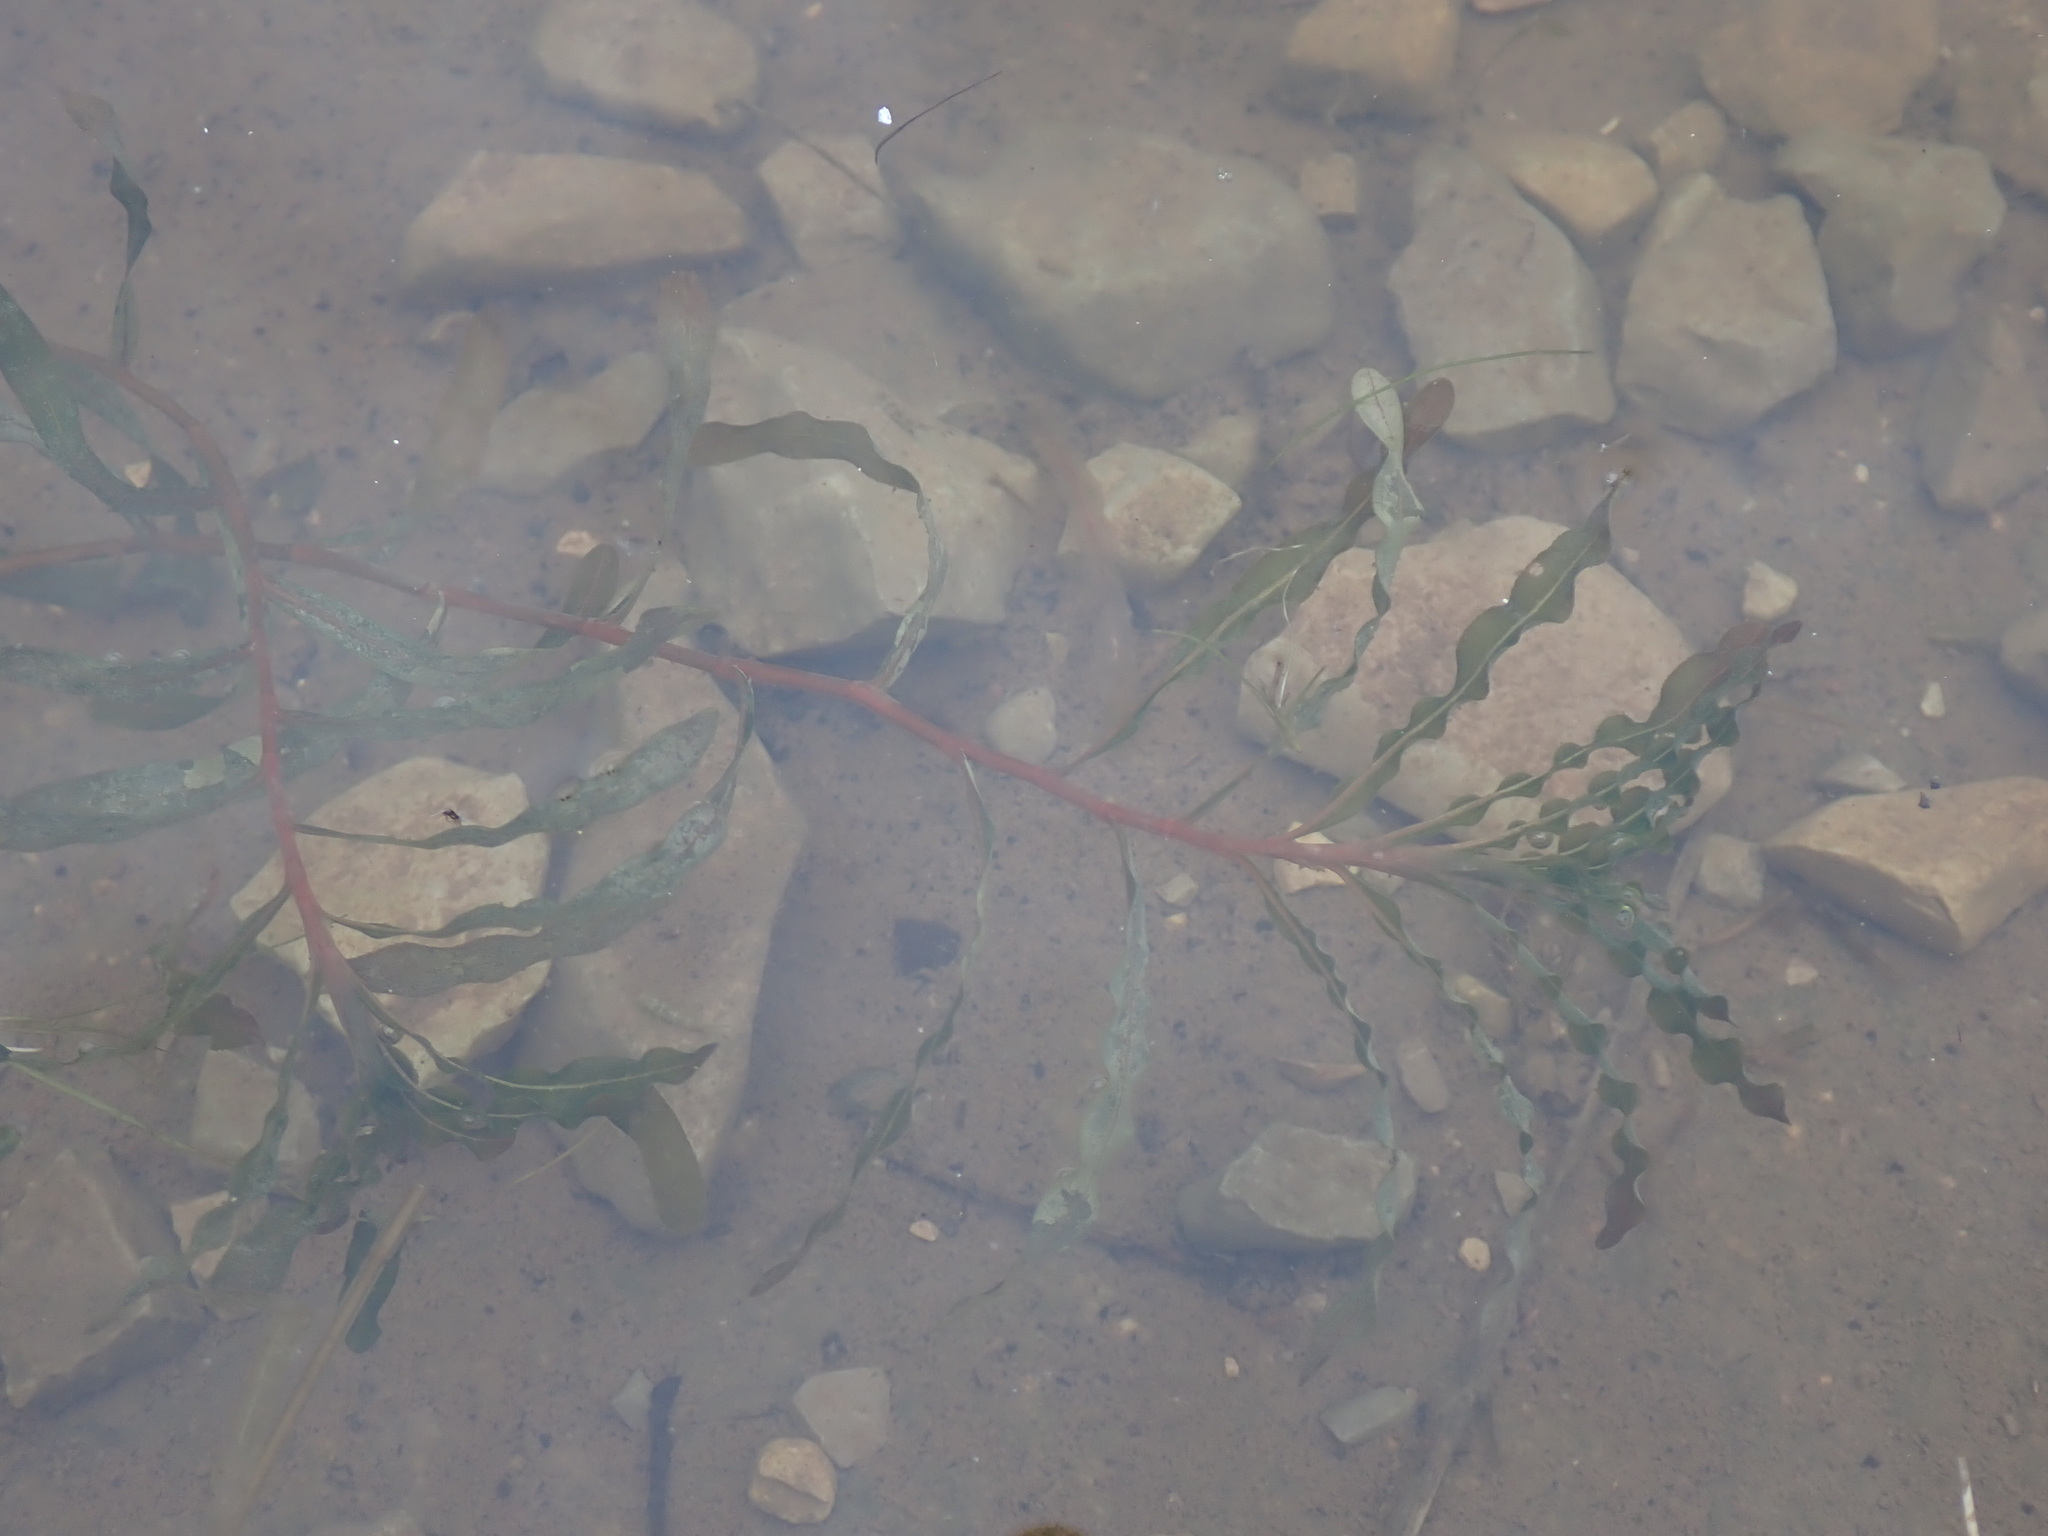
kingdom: Plantae
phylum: Tracheophyta
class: Liliopsida
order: Alismatales
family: Potamogetonaceae
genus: Potamogeton
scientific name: Potamogeton crispus
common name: Curled pondweed
